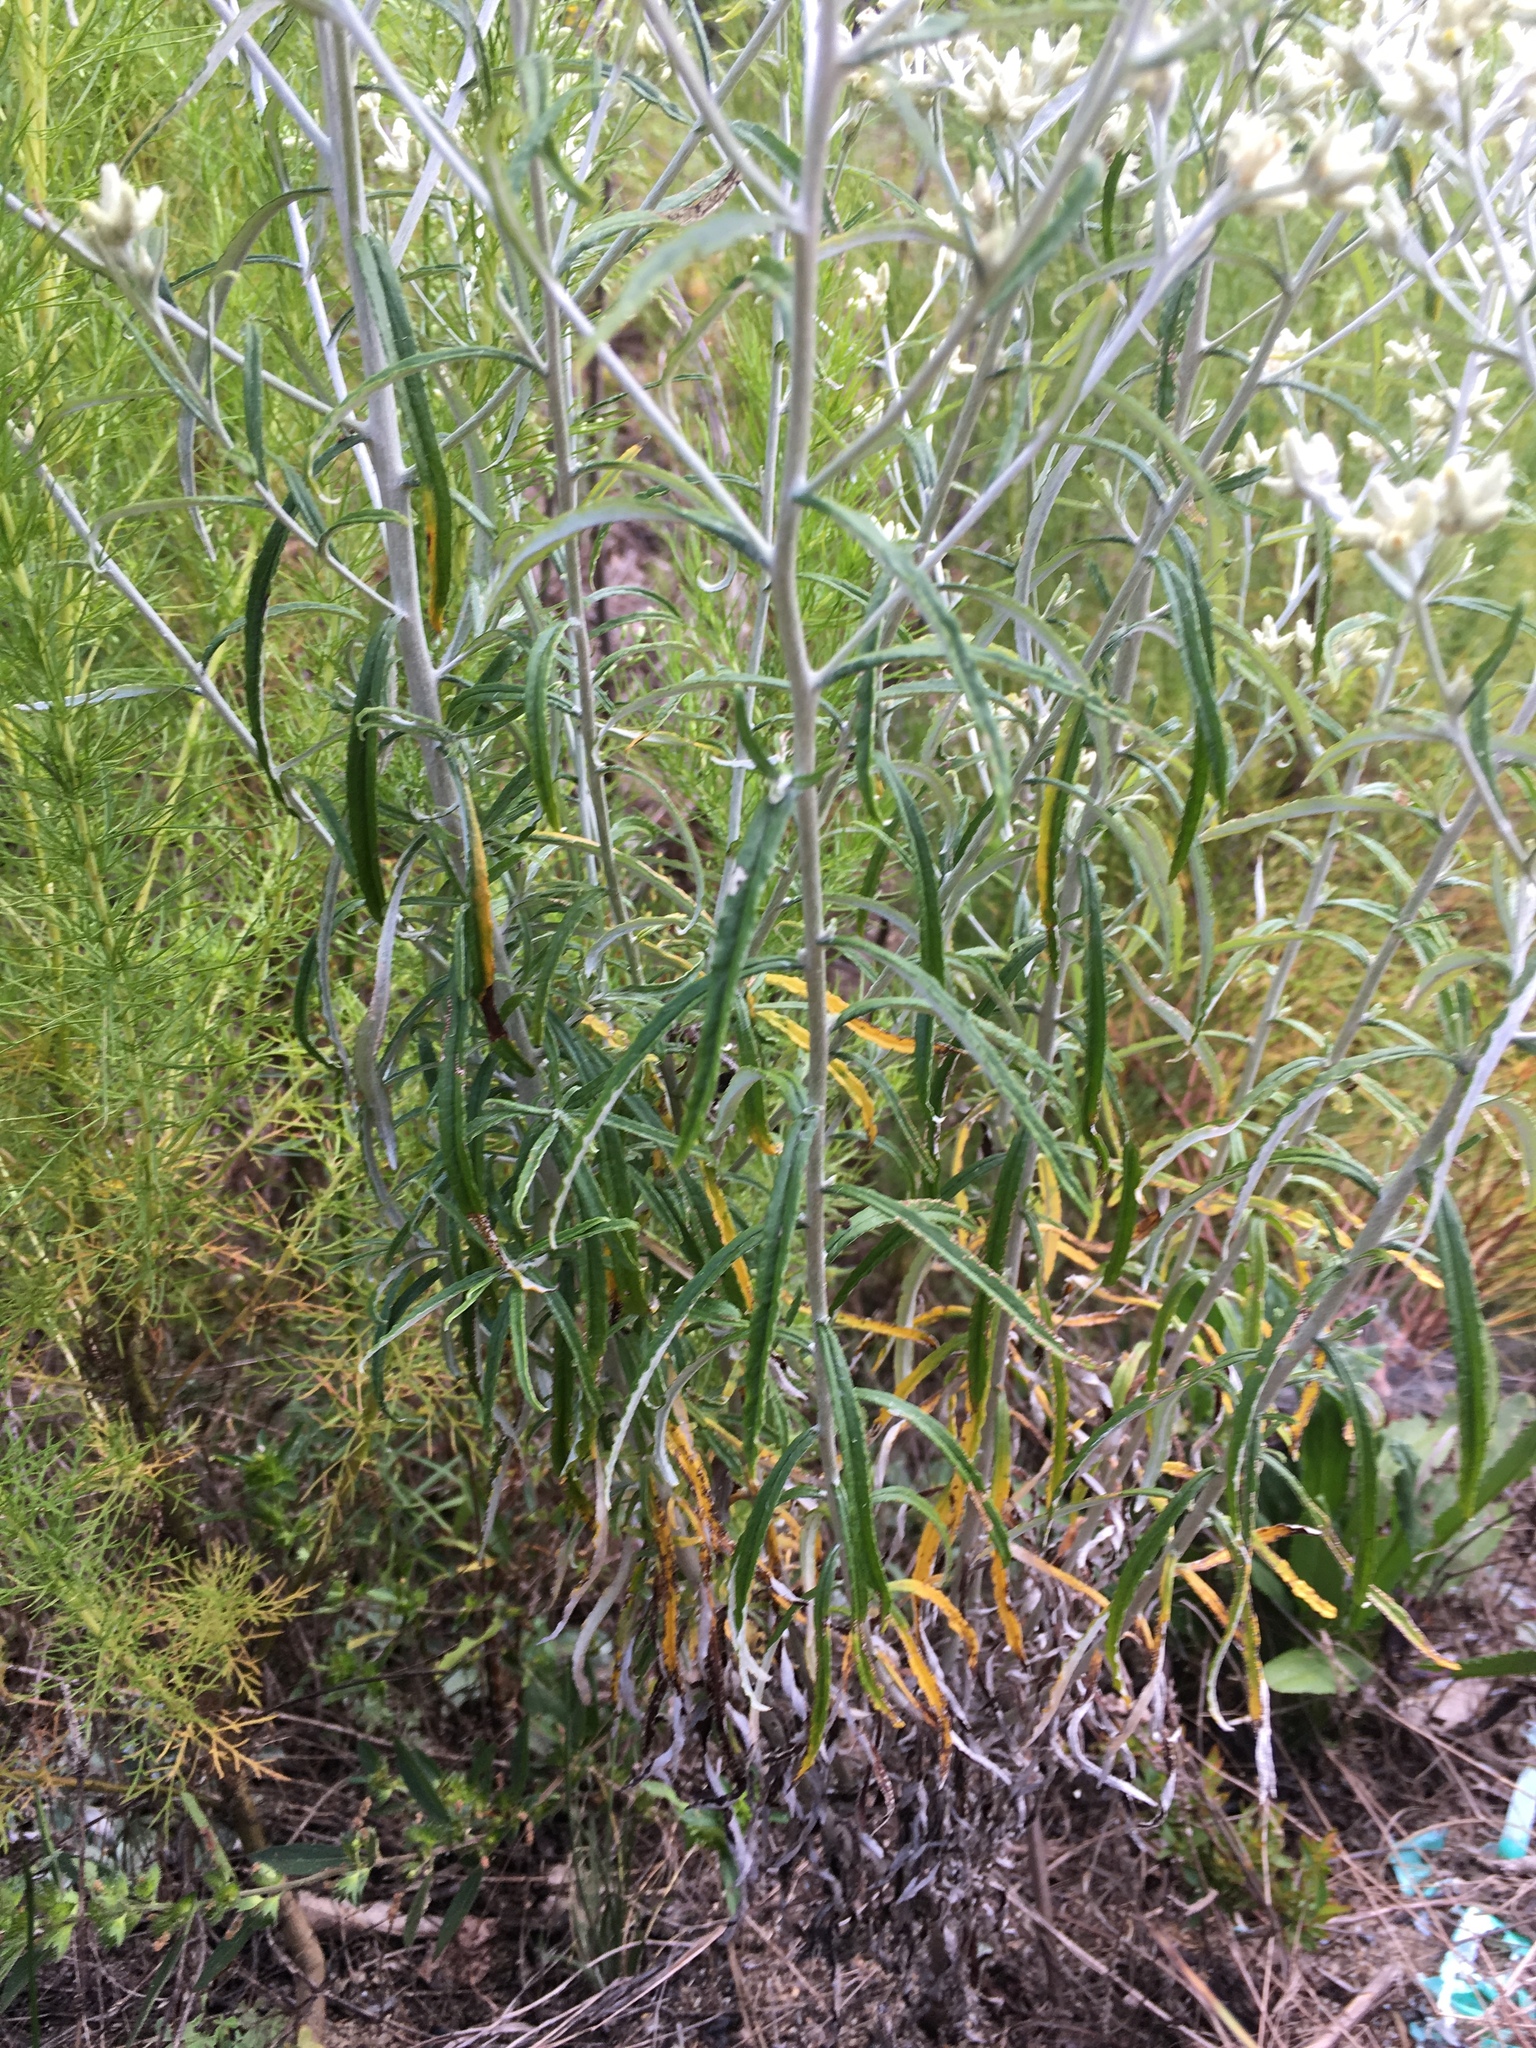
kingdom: Plantae
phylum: Tracheophyta
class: Magnoliopsida
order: Asterales
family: Asteraceae
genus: Pseudognaphalium
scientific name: Pseudognaphalium obtusifolium
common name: Eastern rabbit-tobacco
